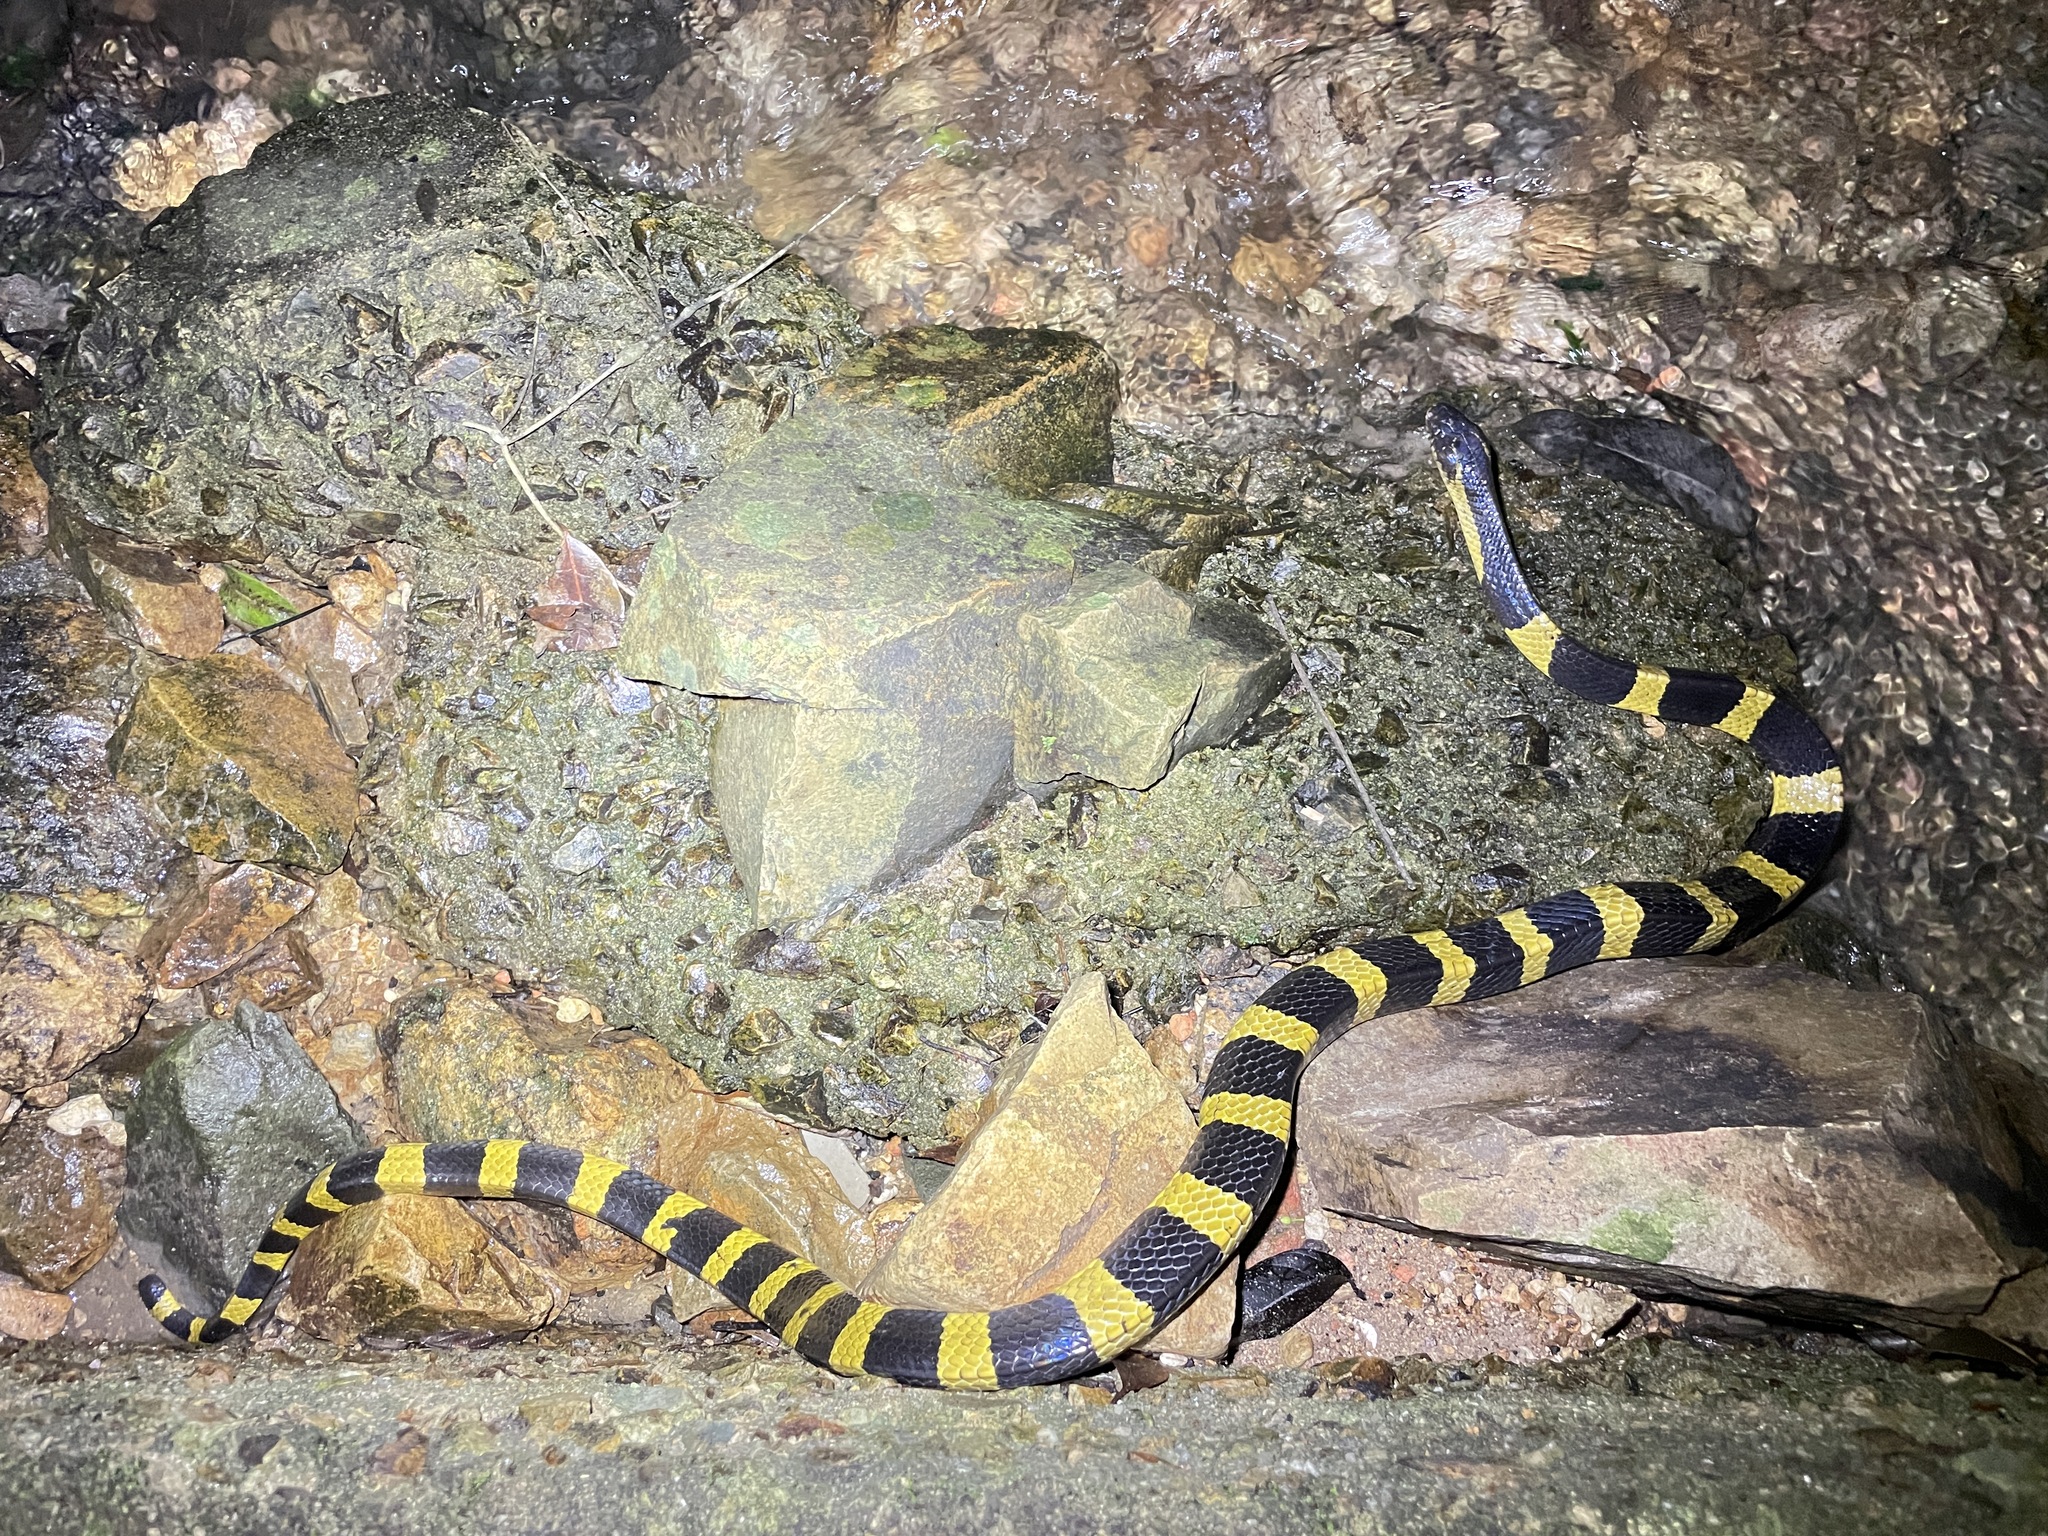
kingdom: Animalia
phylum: Chordata
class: Squamata
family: Elapidae
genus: Bungarus
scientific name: Bungarus fasciatus
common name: Banded krait
